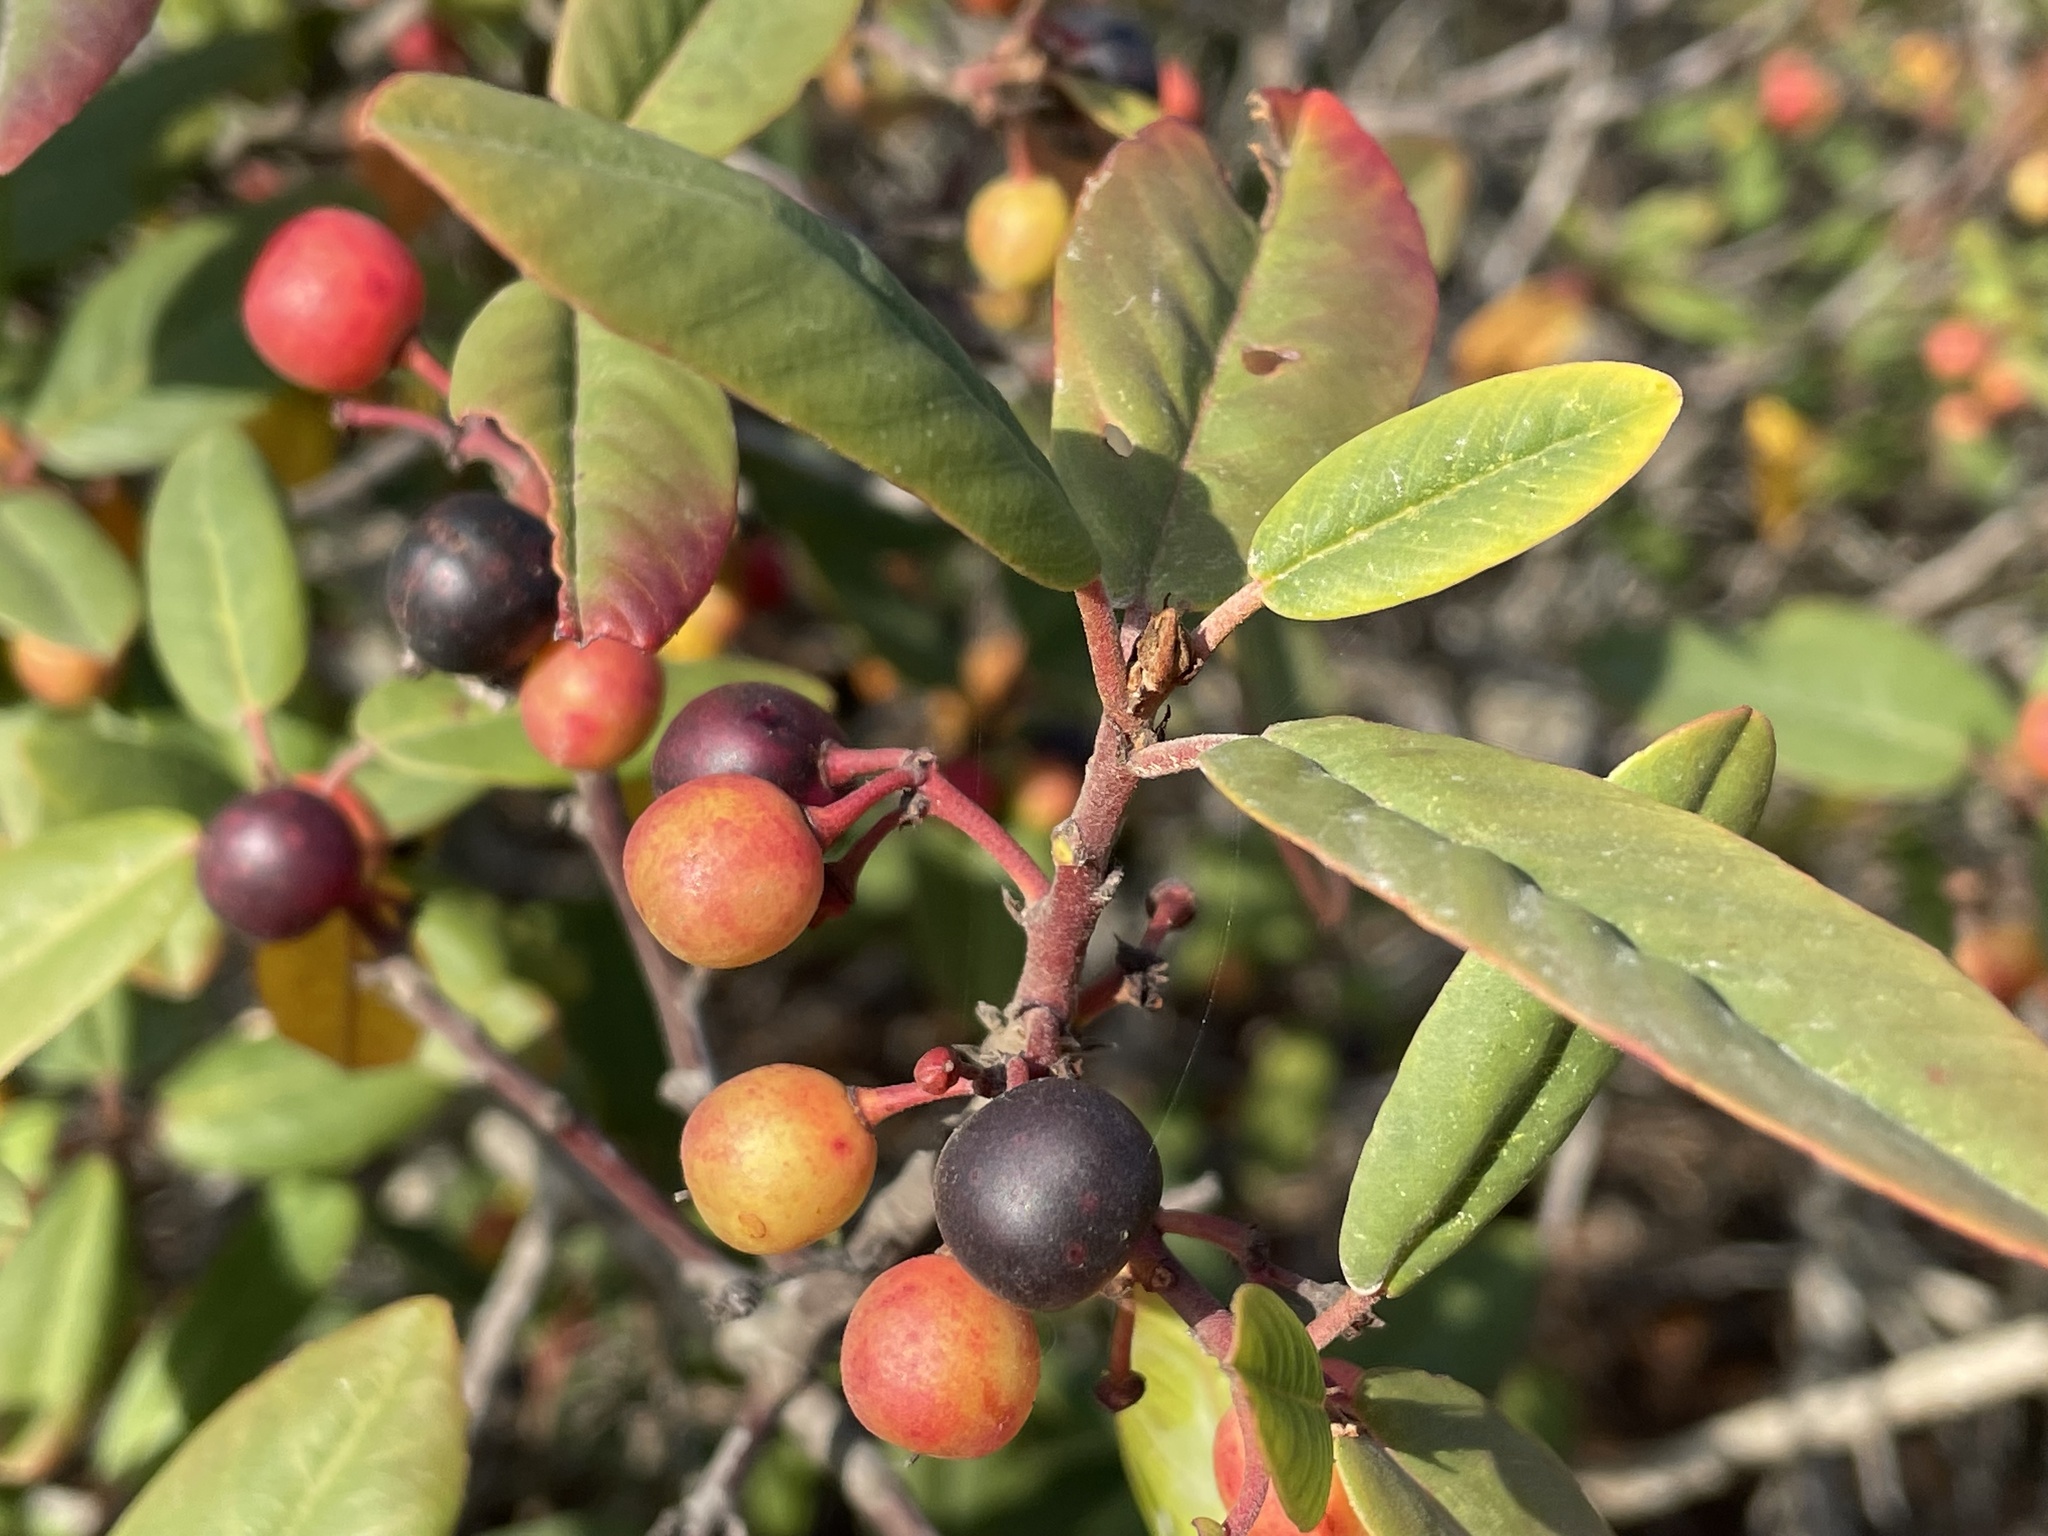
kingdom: Plantae
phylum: Tracheophyta
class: Magnoliopsida
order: Rosales
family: Rhamnaceae
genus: Frangula
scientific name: Frangula californica
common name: California buckthorn
